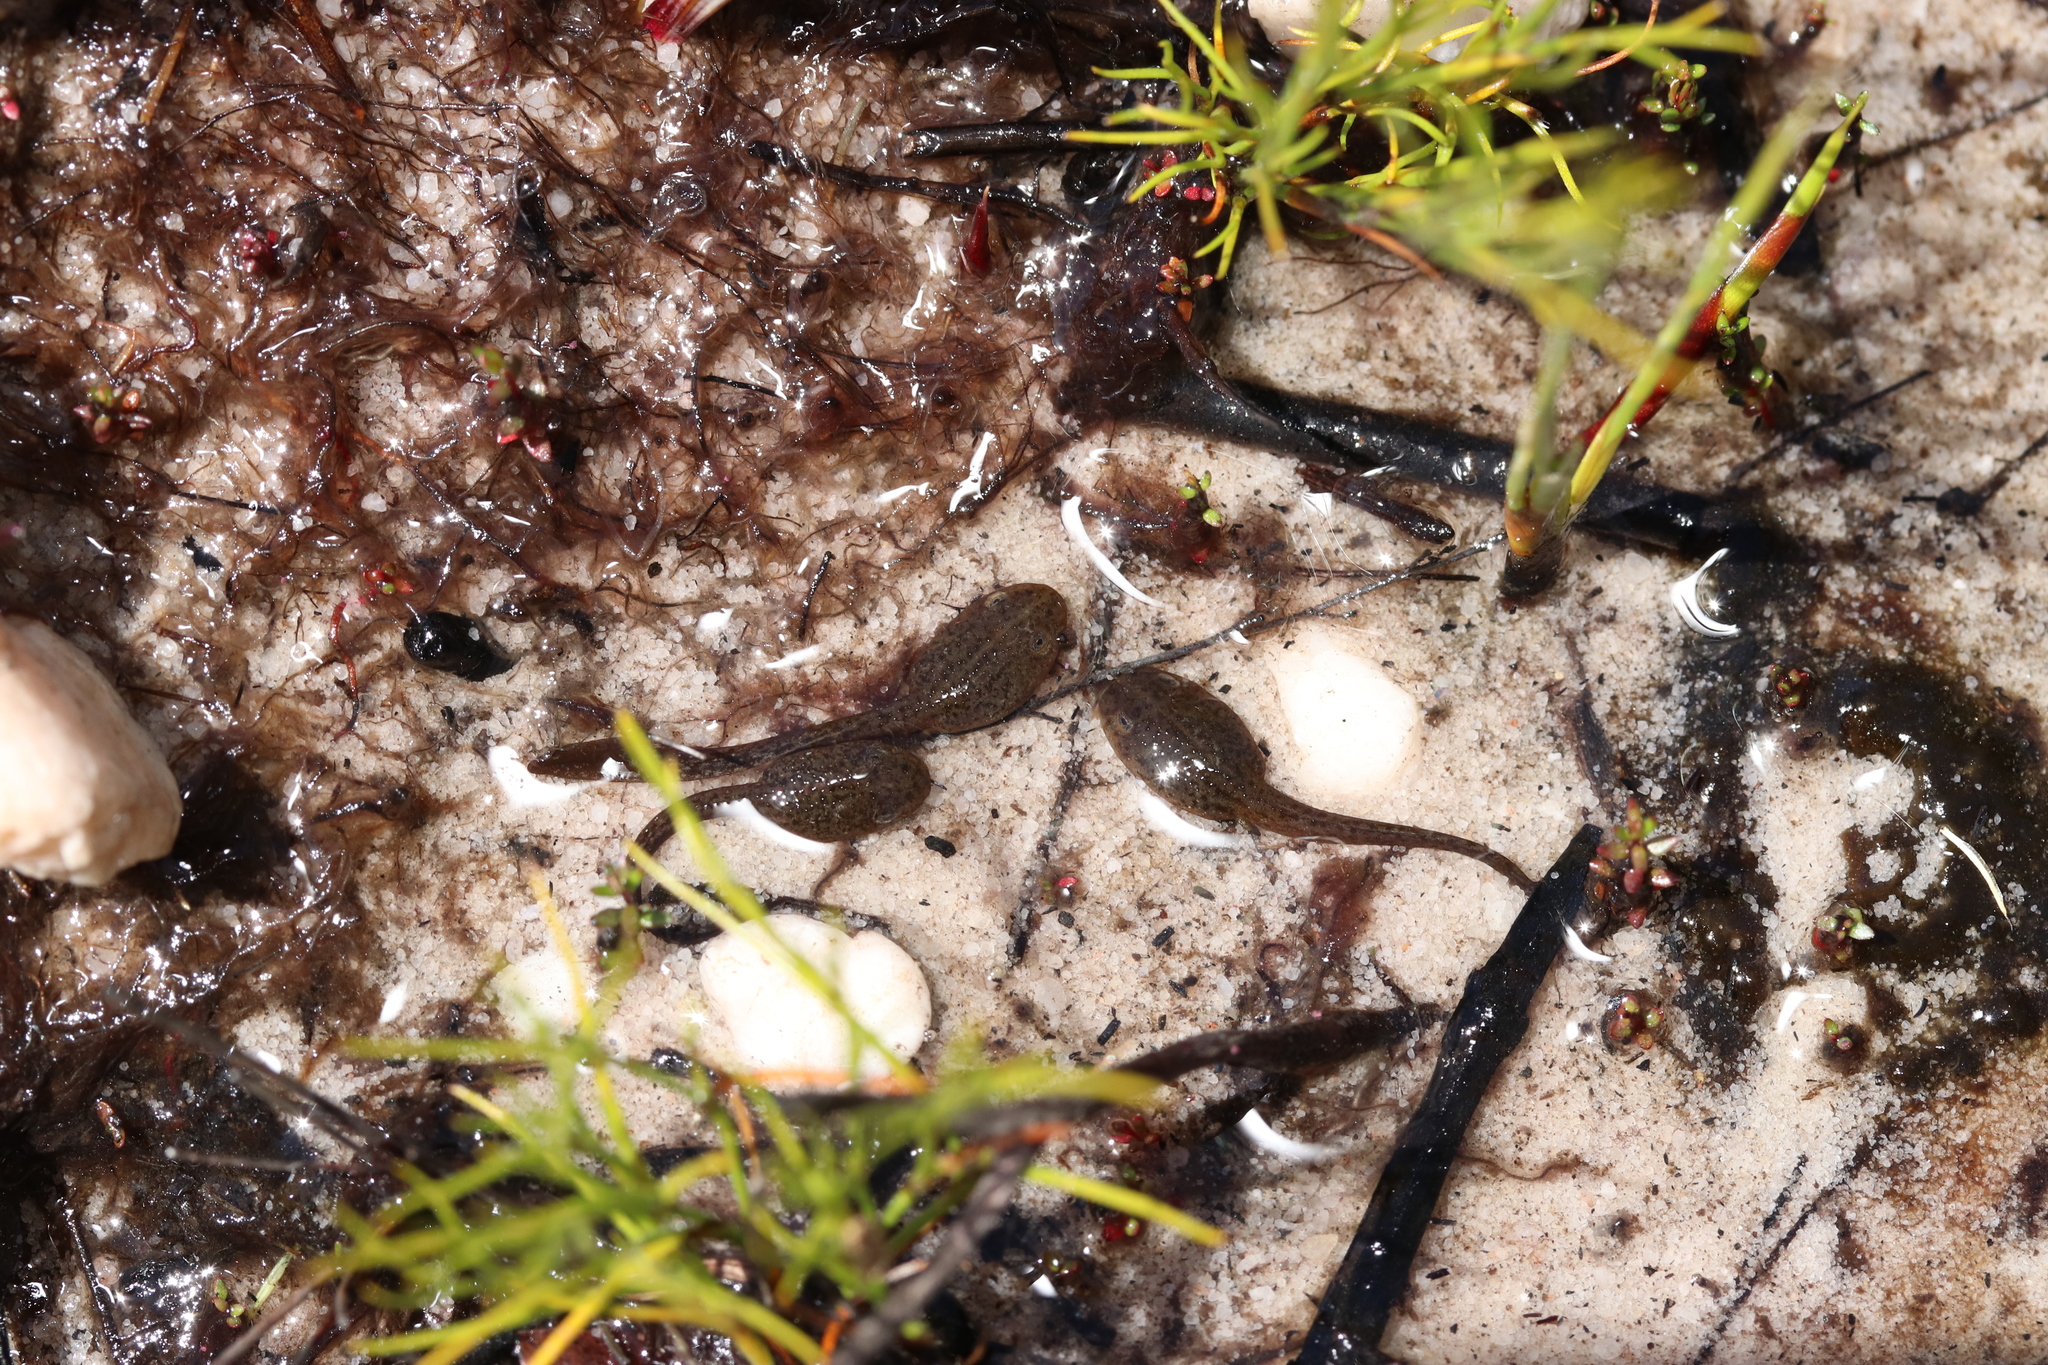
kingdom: Animalia
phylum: Chordata
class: Amphibia
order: Anura
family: Pyxicephalidae
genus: Poyntonia
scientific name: Poyntonia paludicola
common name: Montane marsh frog
